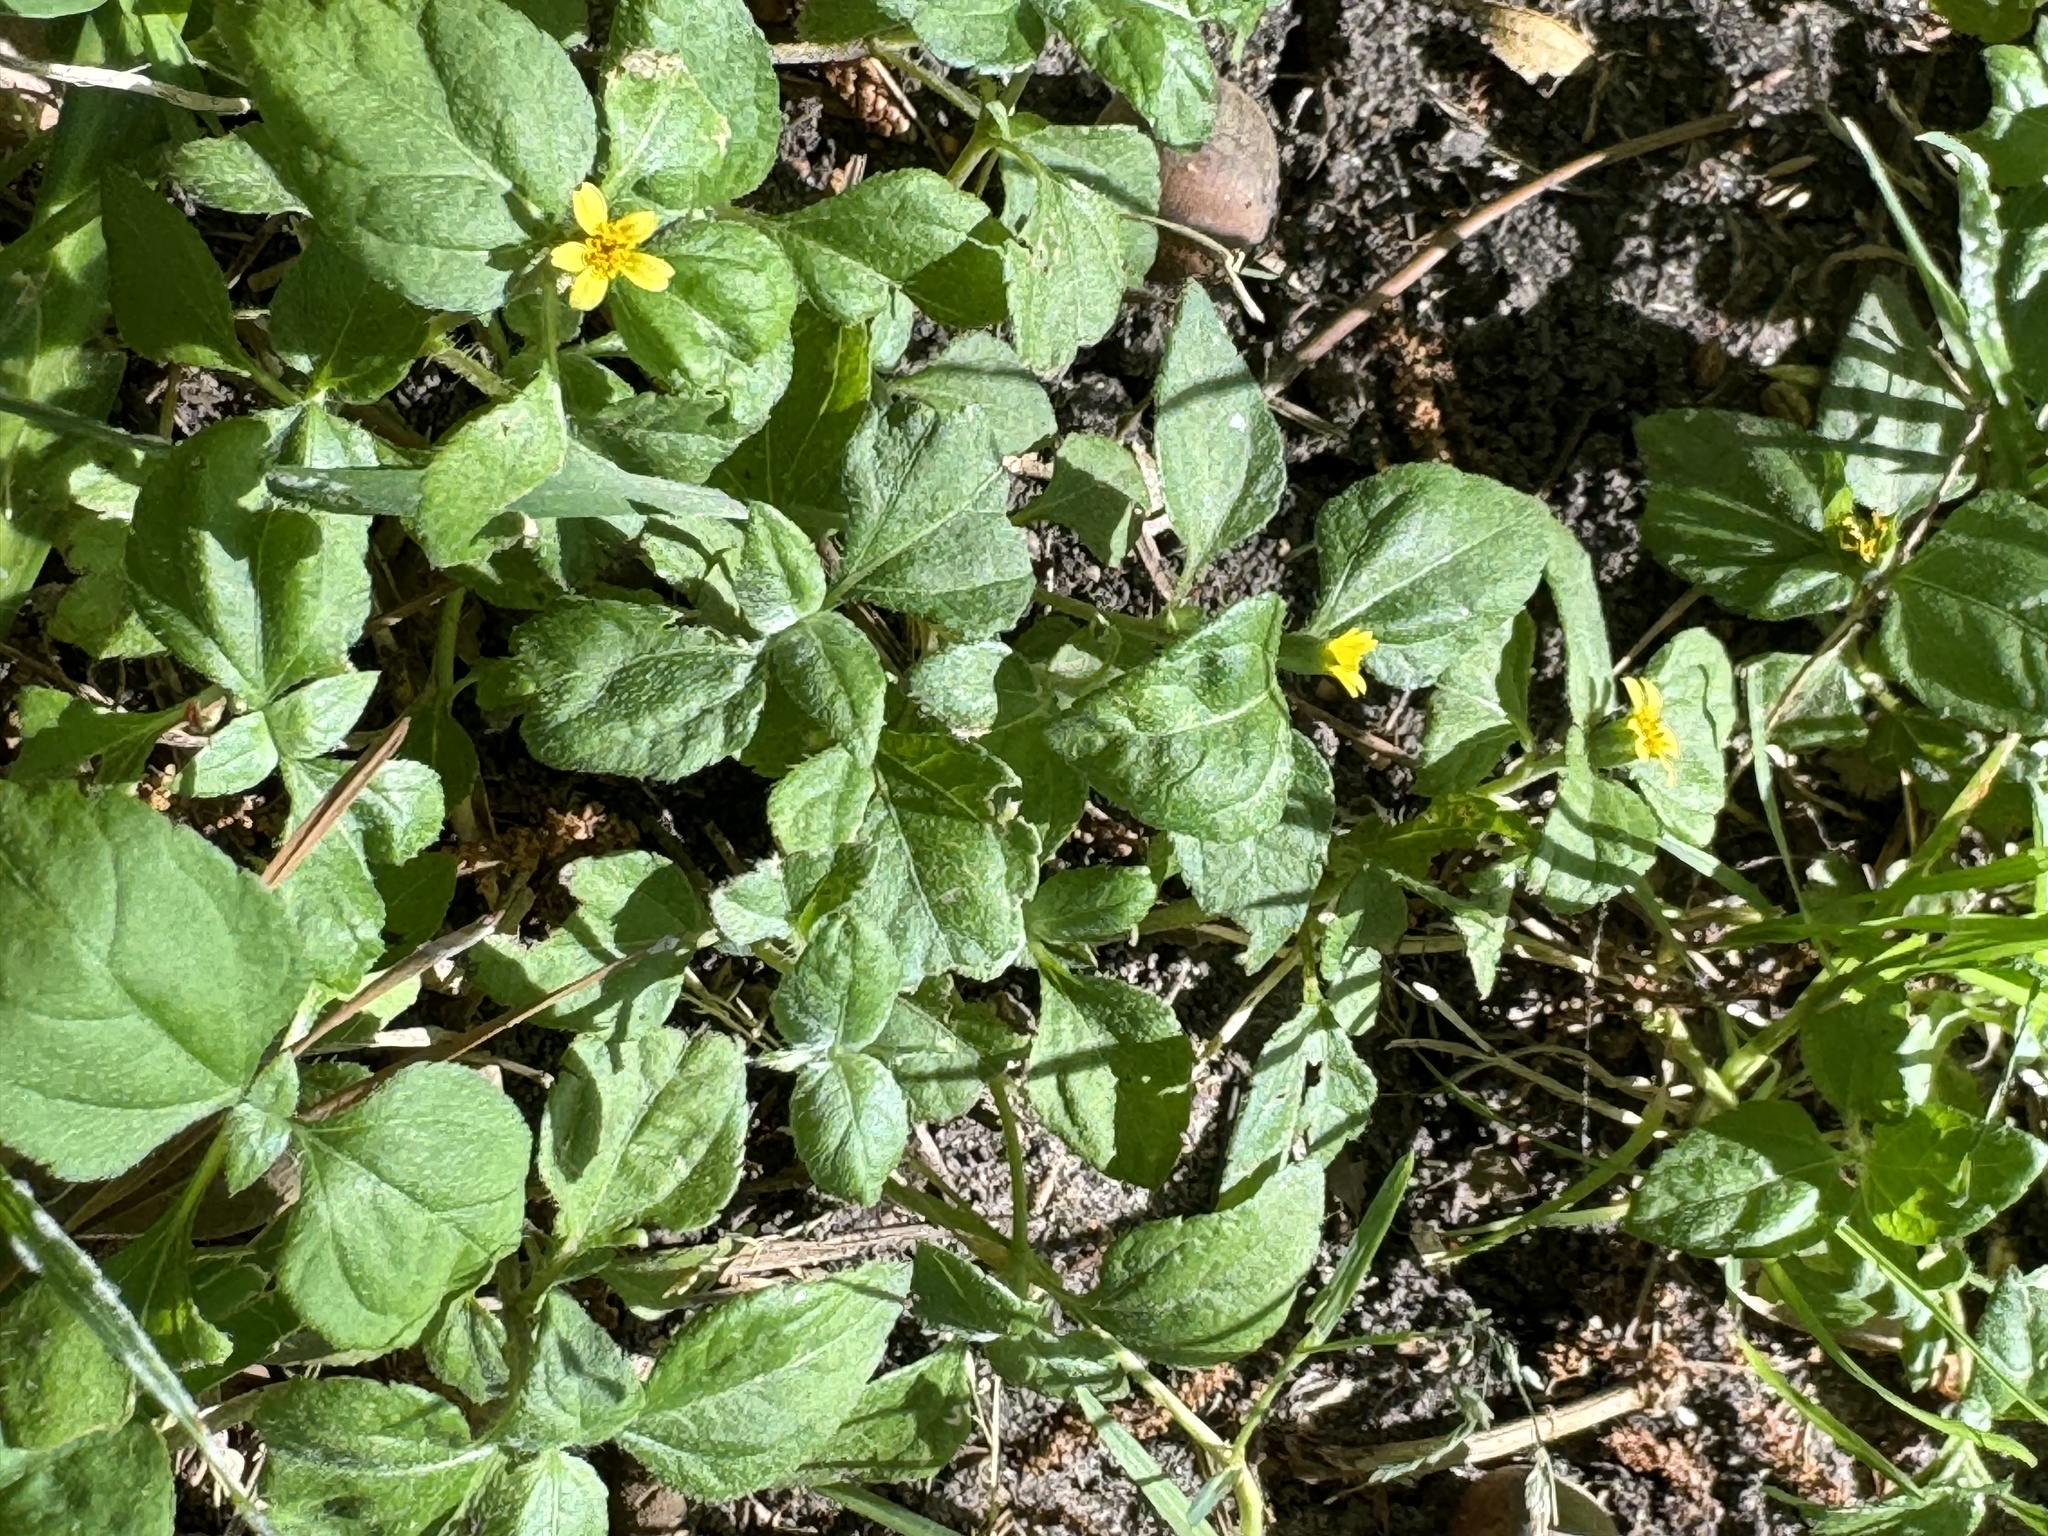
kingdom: Plantae
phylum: Tracheophyta
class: Magnoliopsida
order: Asterales
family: Asteraceae
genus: Calyptocarpus
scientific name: Calyptocarpus vialis
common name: Straggler daisy
